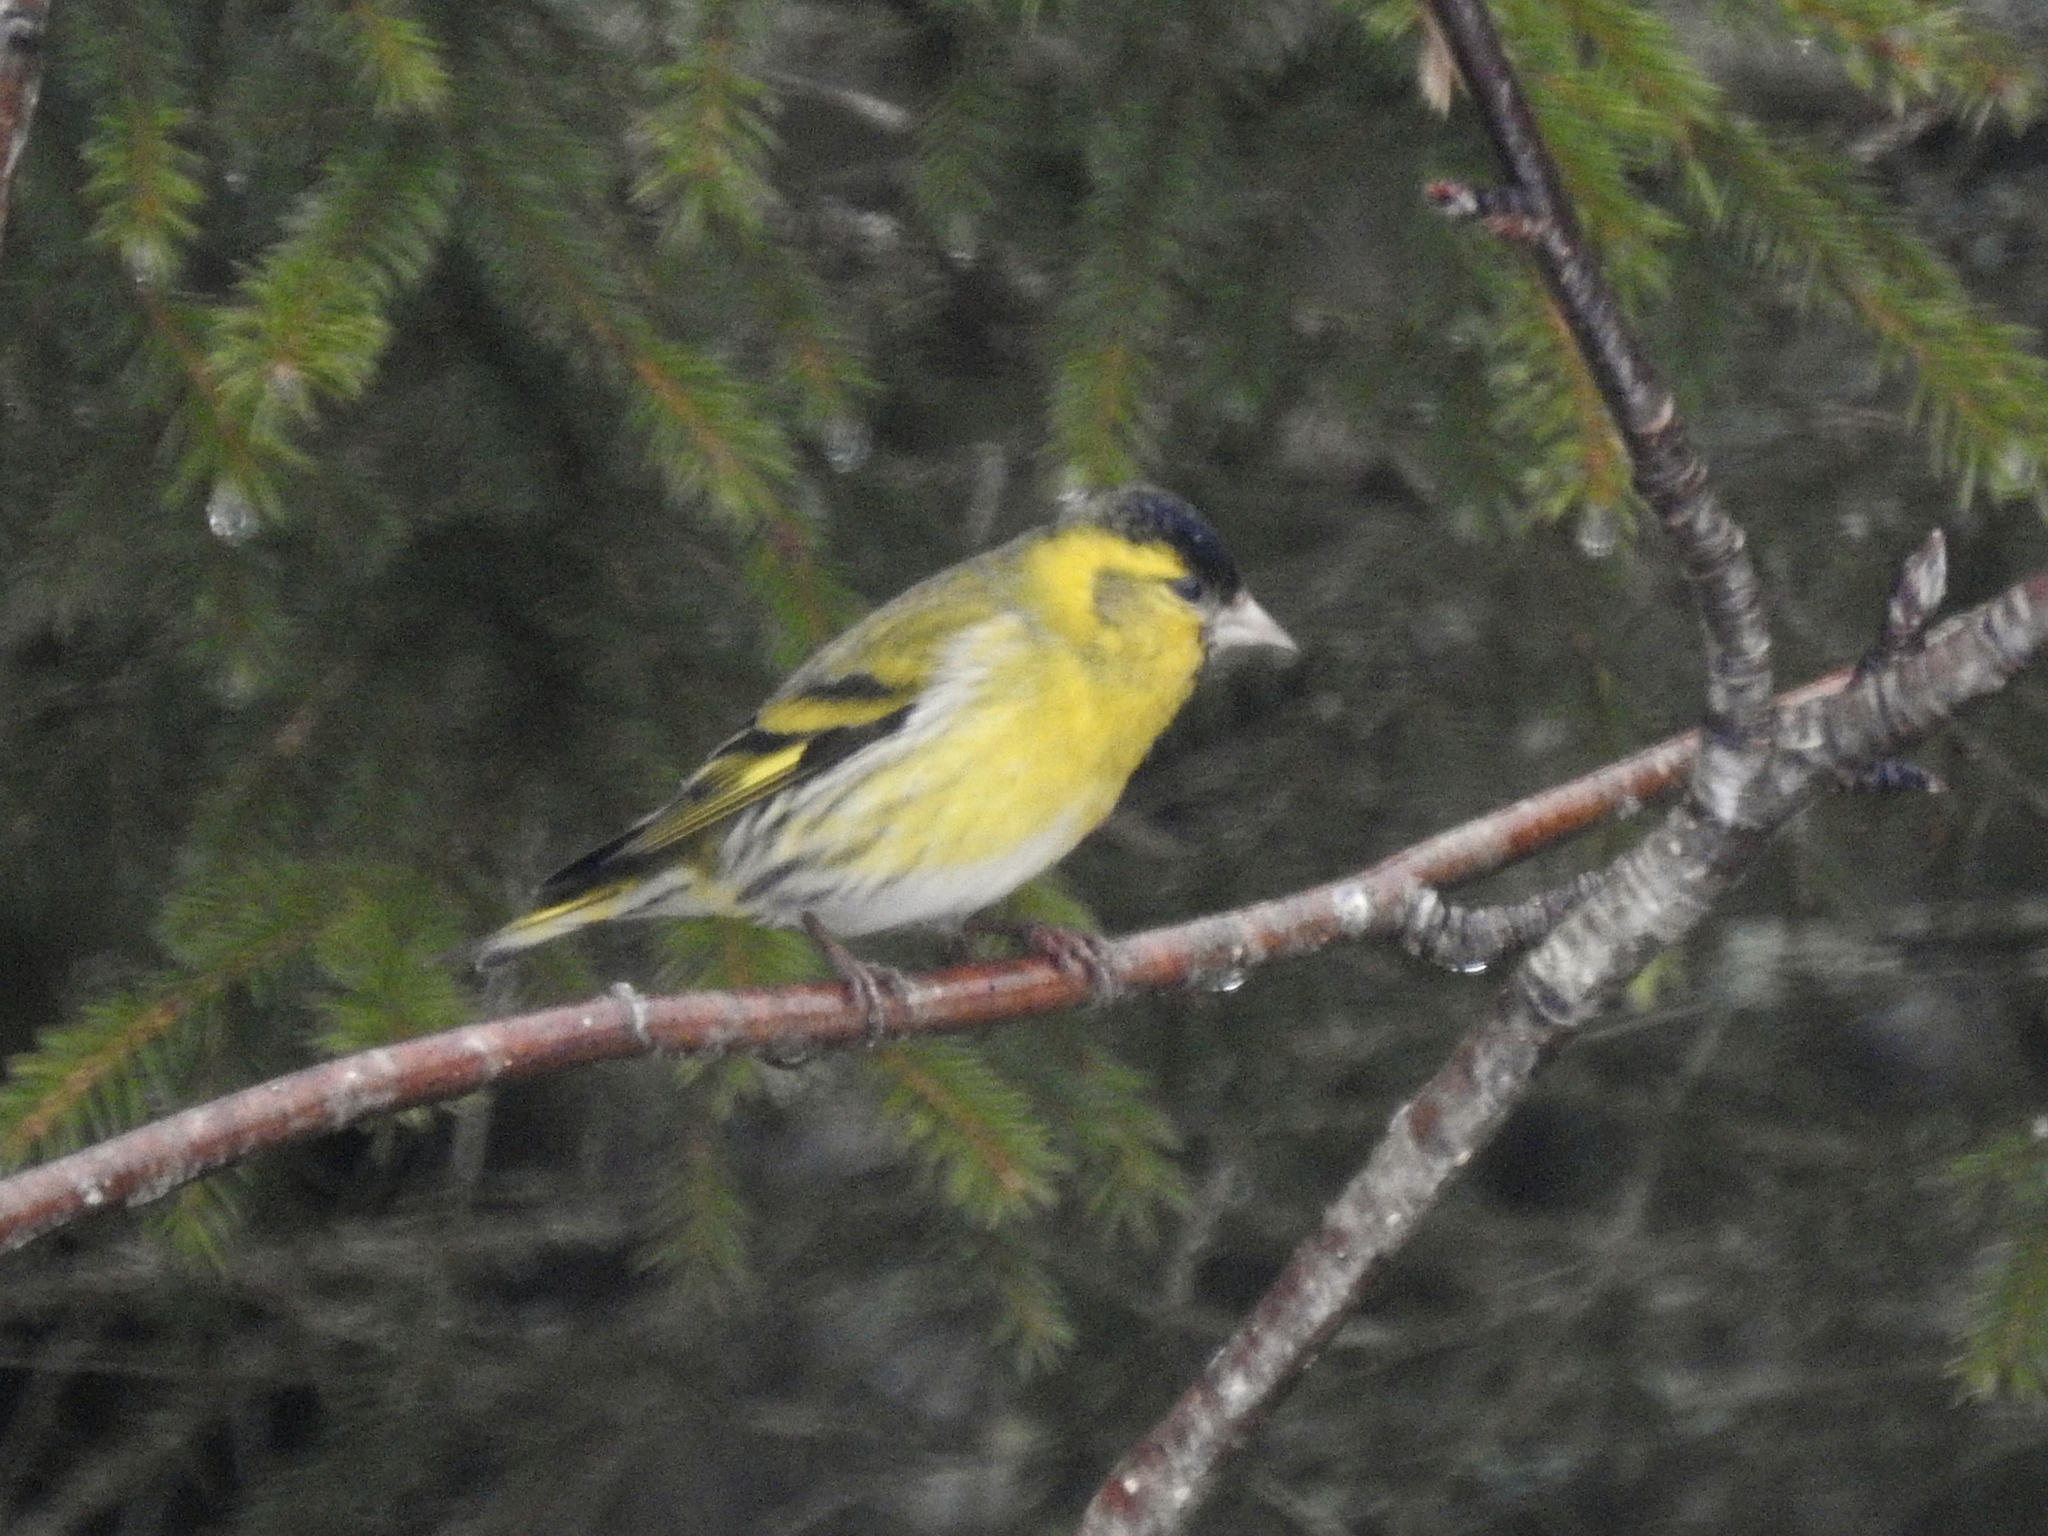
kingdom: Animalia
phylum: Chordata
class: Aves
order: Passeriformes
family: Fringillidae
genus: Spinus
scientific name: Spinus spinus
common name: Eurasian siskin
